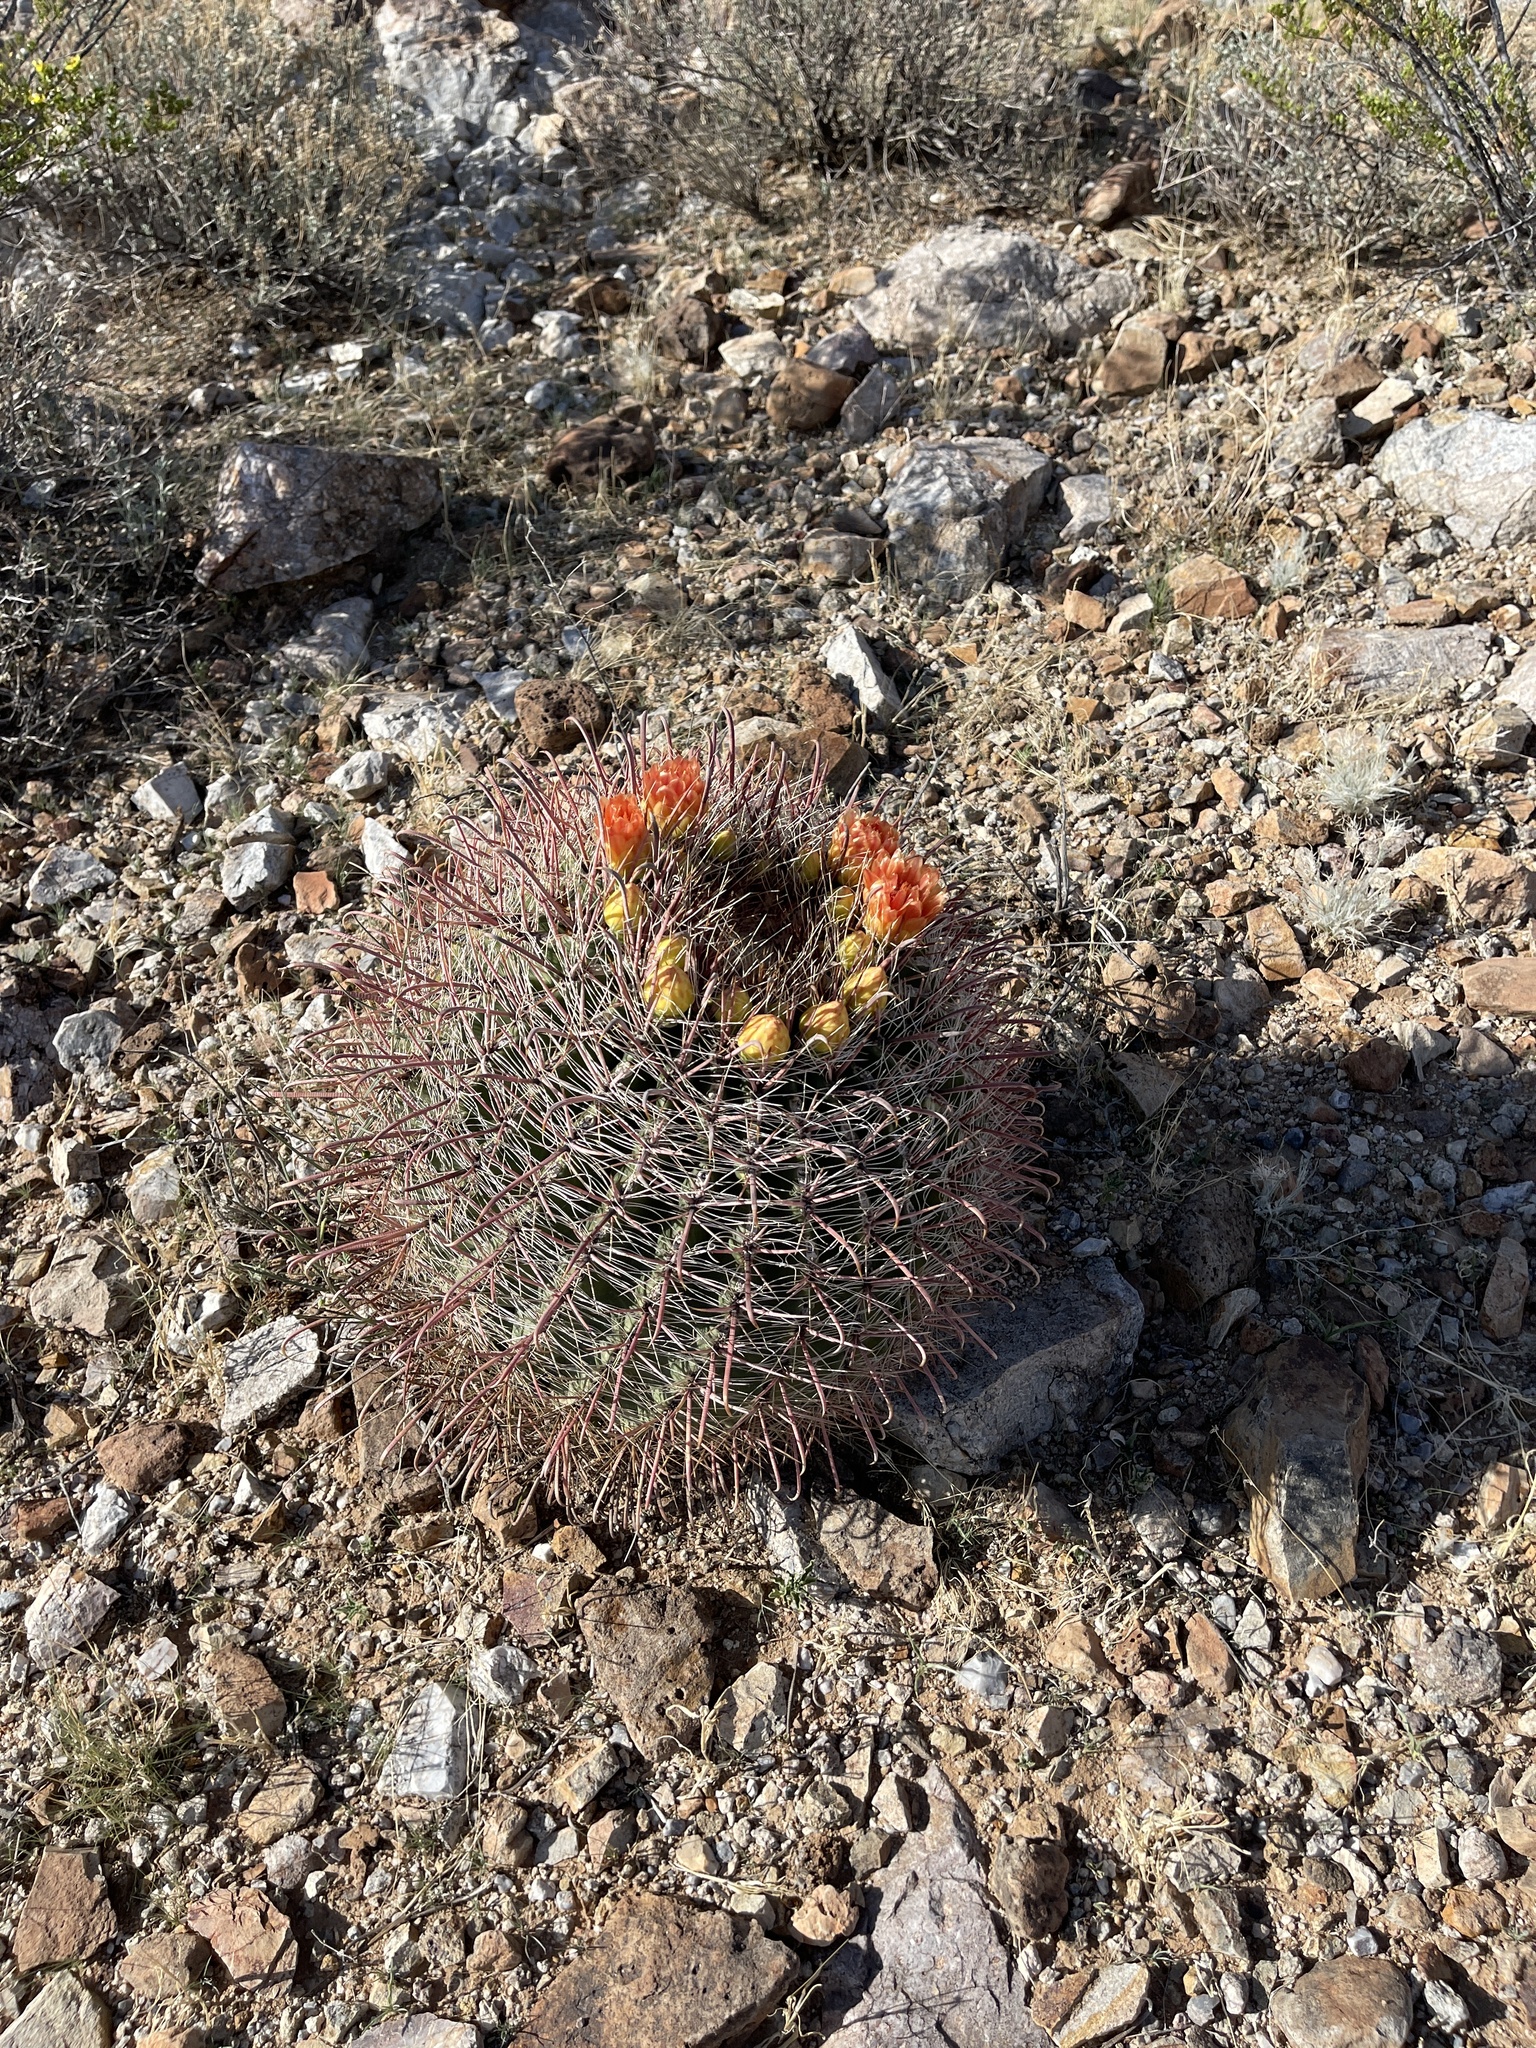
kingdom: Plantae
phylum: Tracheophyta
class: Magnoliopsida
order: Caryophyllales
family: Cactaceae
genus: Ferocactus
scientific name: Ferocactus wislizeni
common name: Candy barrel cactus
